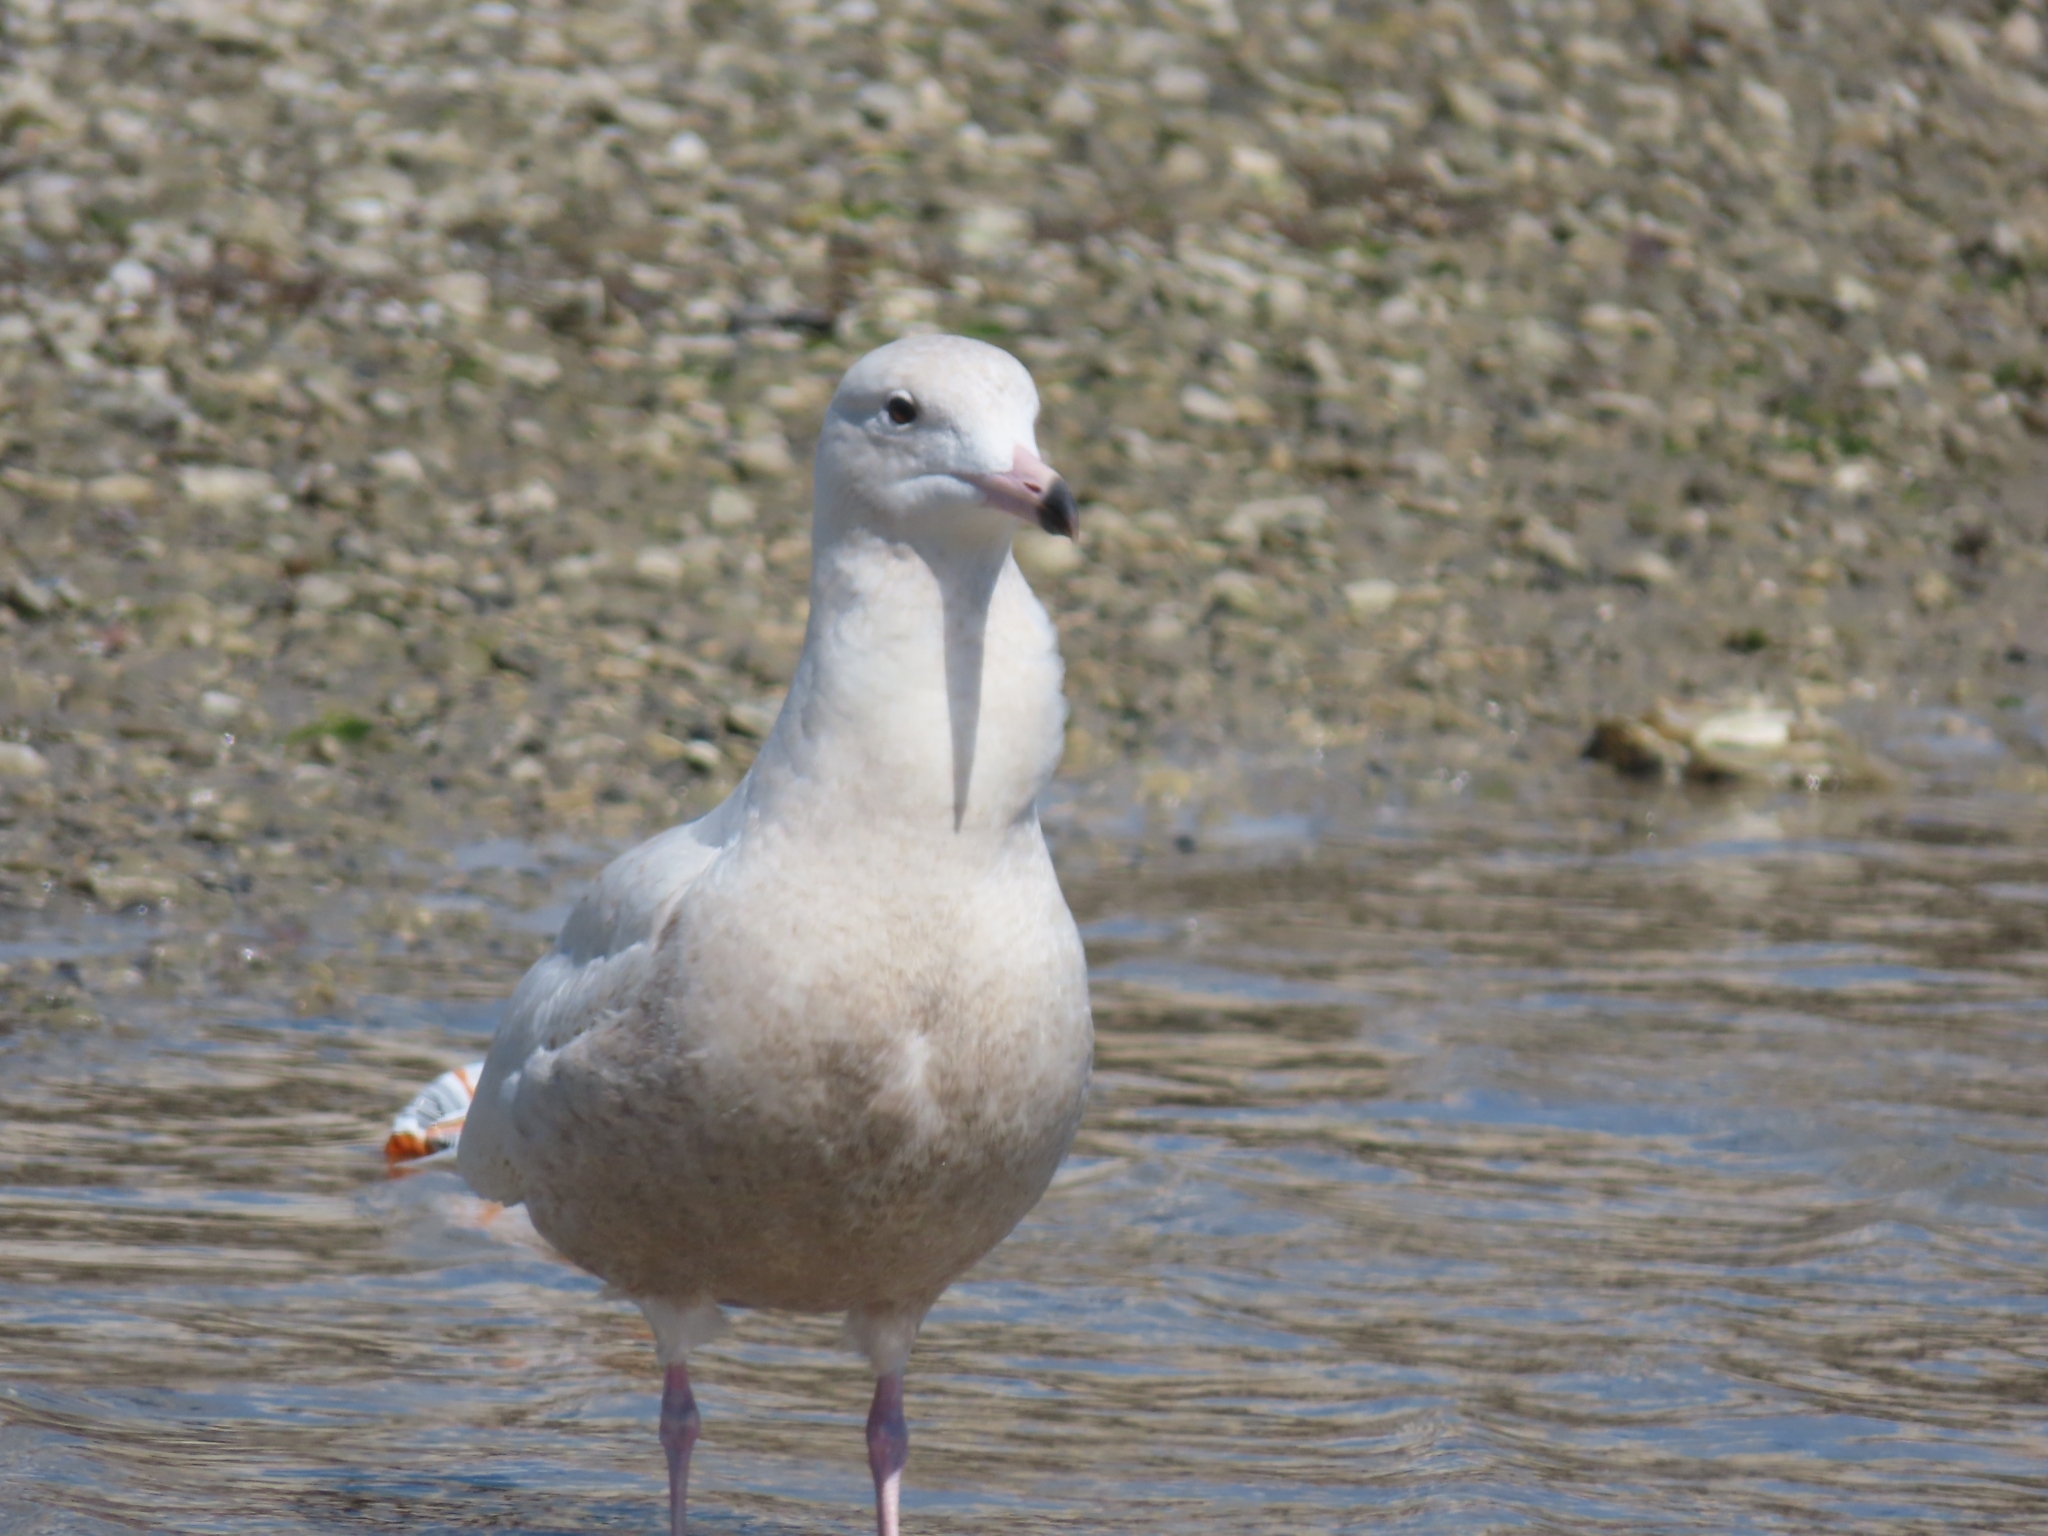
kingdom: Animalia
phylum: Chordata
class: Aves
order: Charadriiformes
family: Laridae
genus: Larus
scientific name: Larus hyperboreus
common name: Glaucous gull
